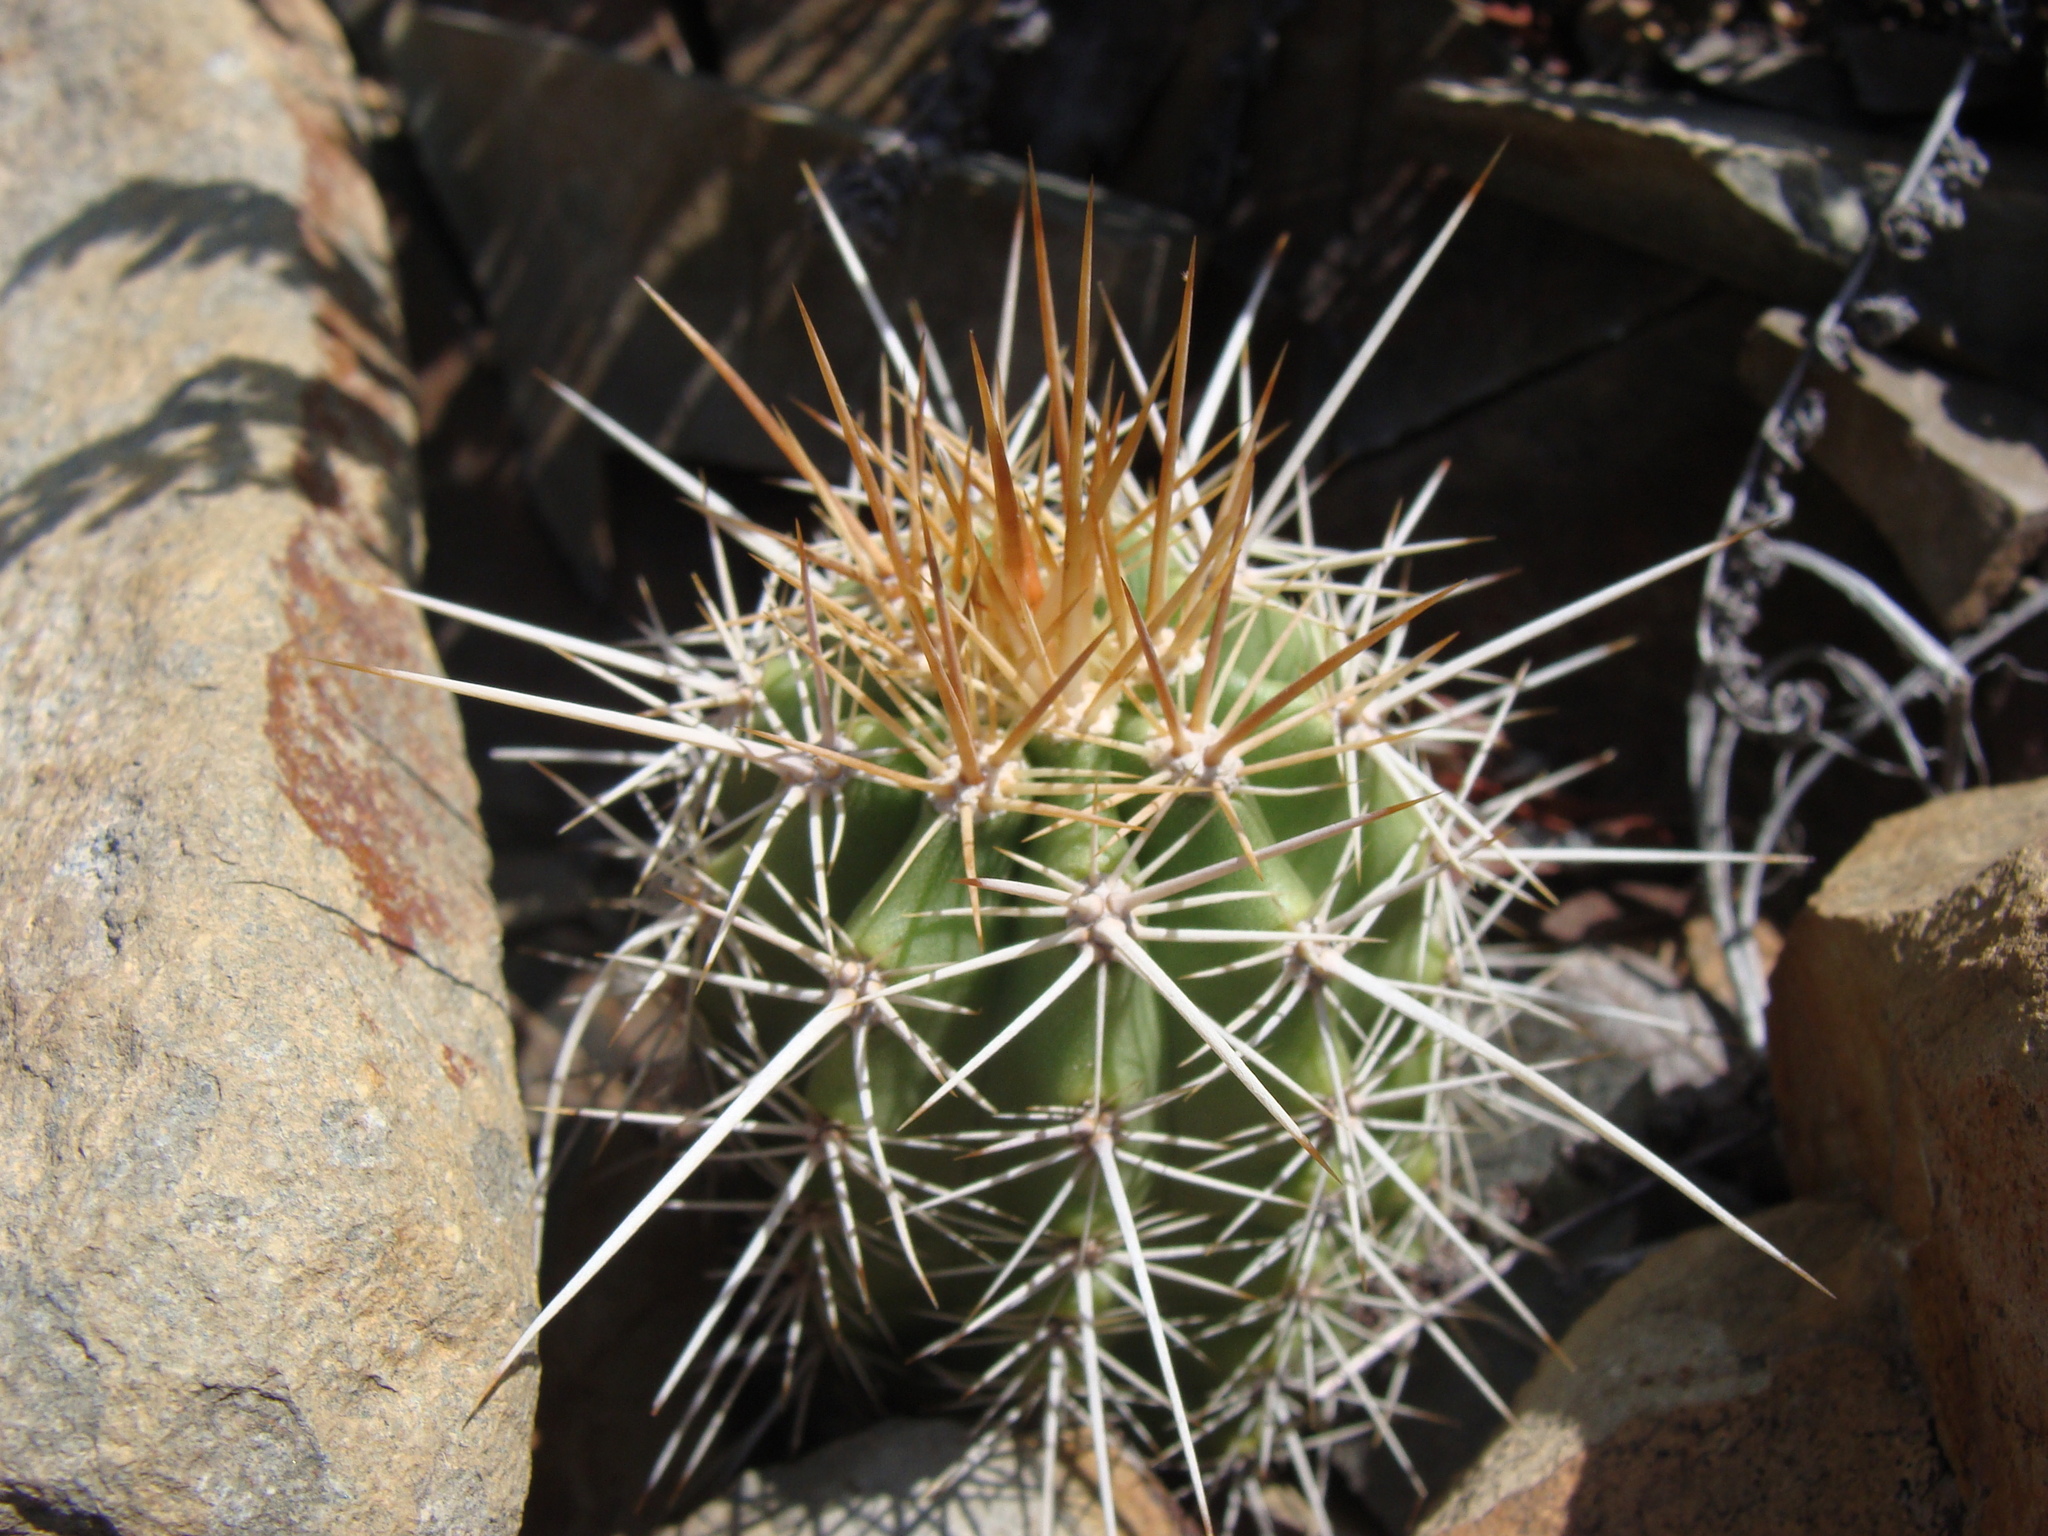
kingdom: Plantae
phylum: Tracheophyta
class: Magnoliopsida
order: Caryophyllales
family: Cactaceae
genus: Echinocereus
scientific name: Echinocereus coccineus
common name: Scarlet hedgehog cactus
